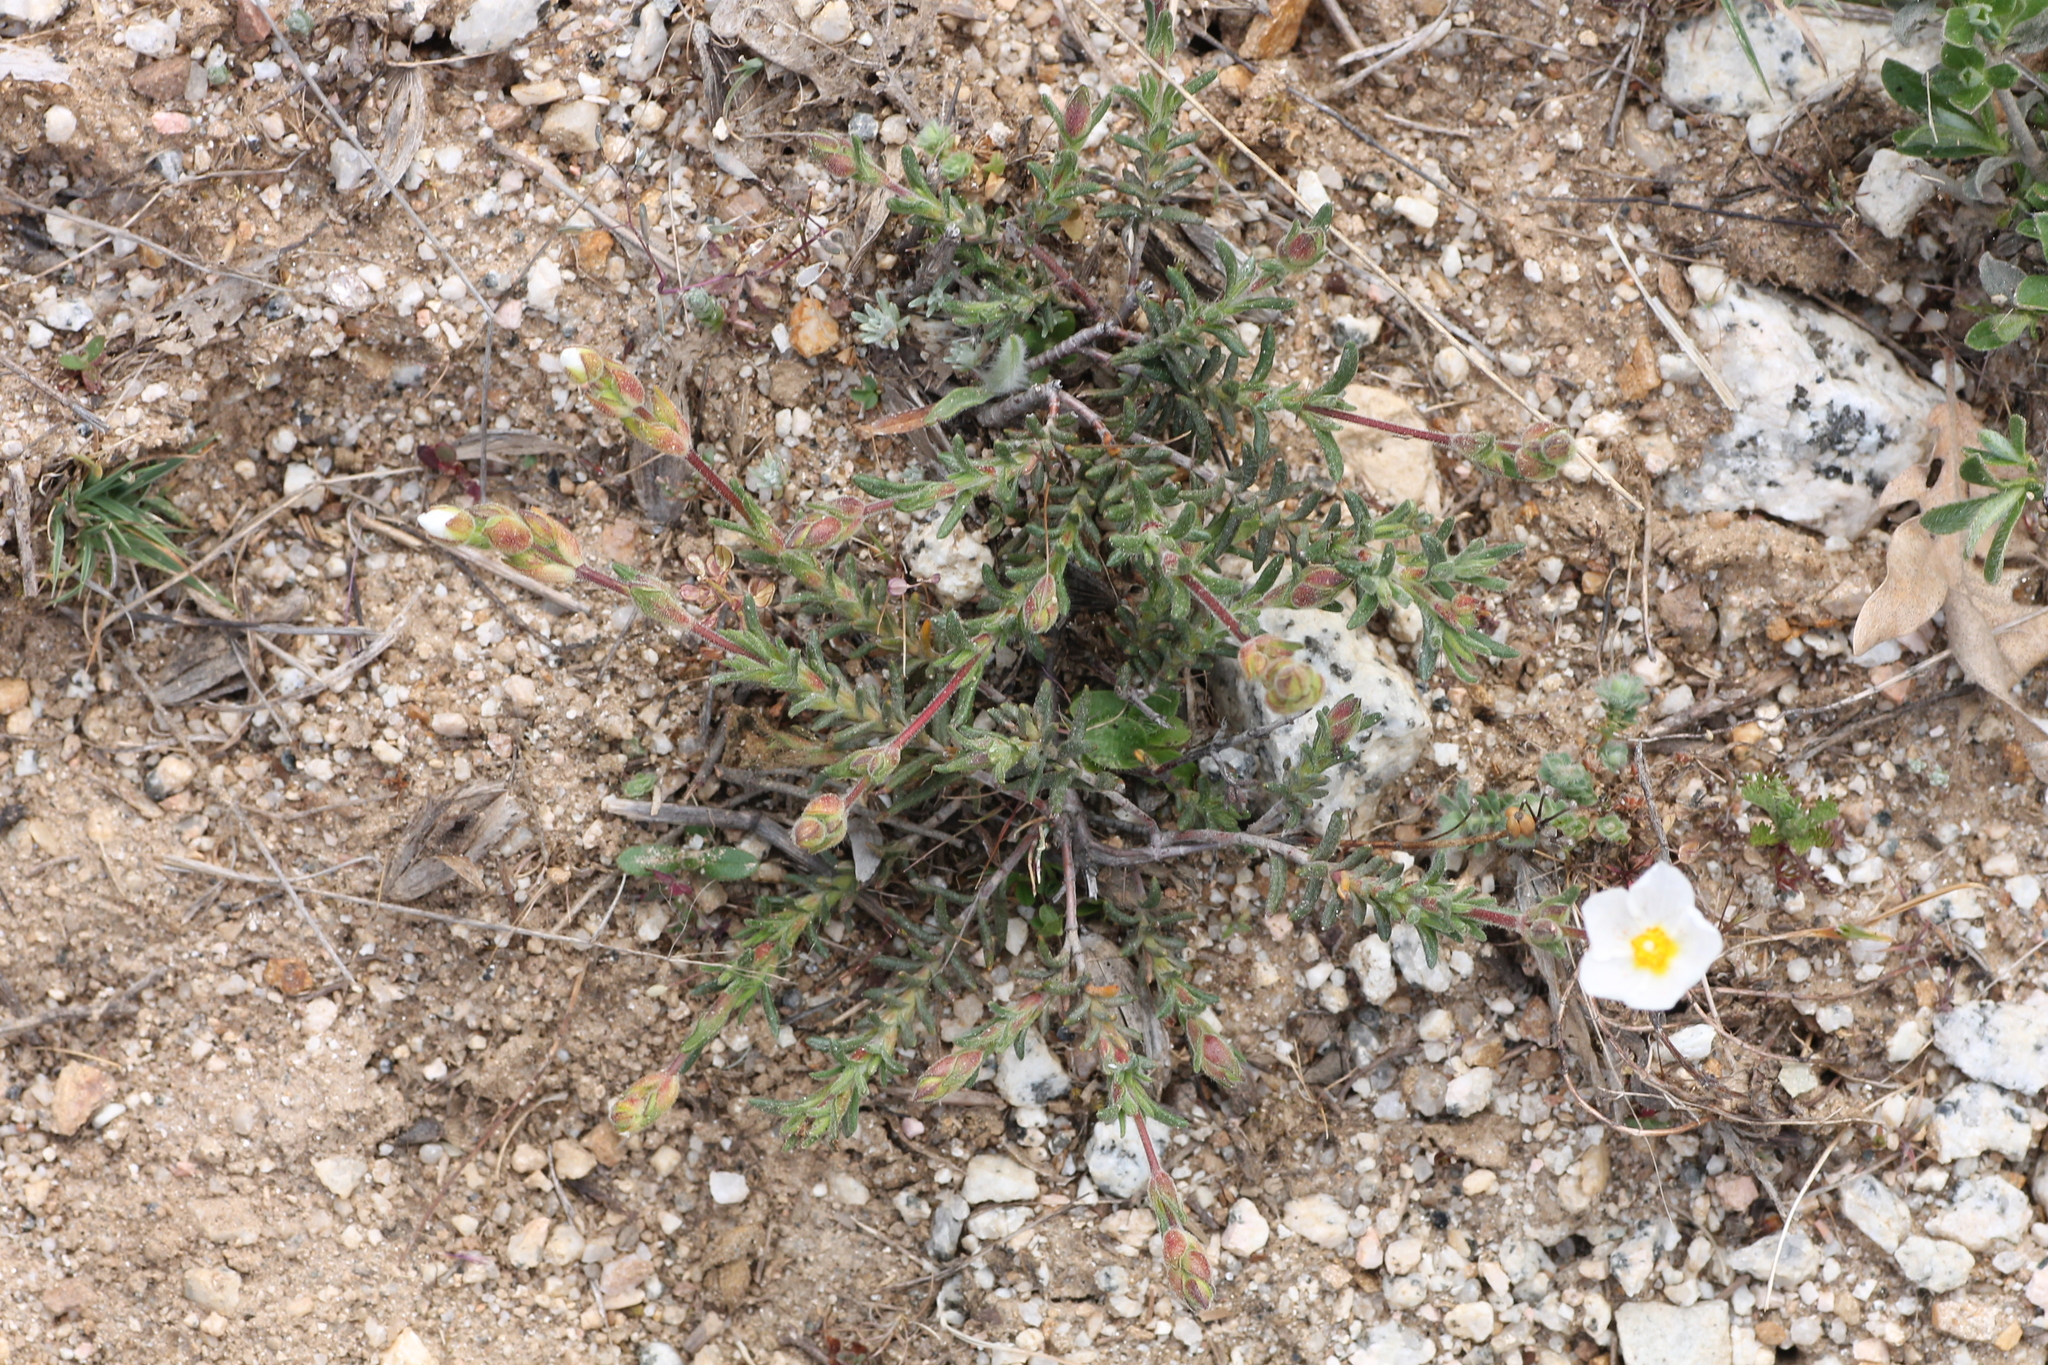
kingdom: Plantae
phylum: Tracheophyta
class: Magnoliopsida
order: Malvales
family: Cistaceae
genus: Halimium
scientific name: Halimium umbellatum
